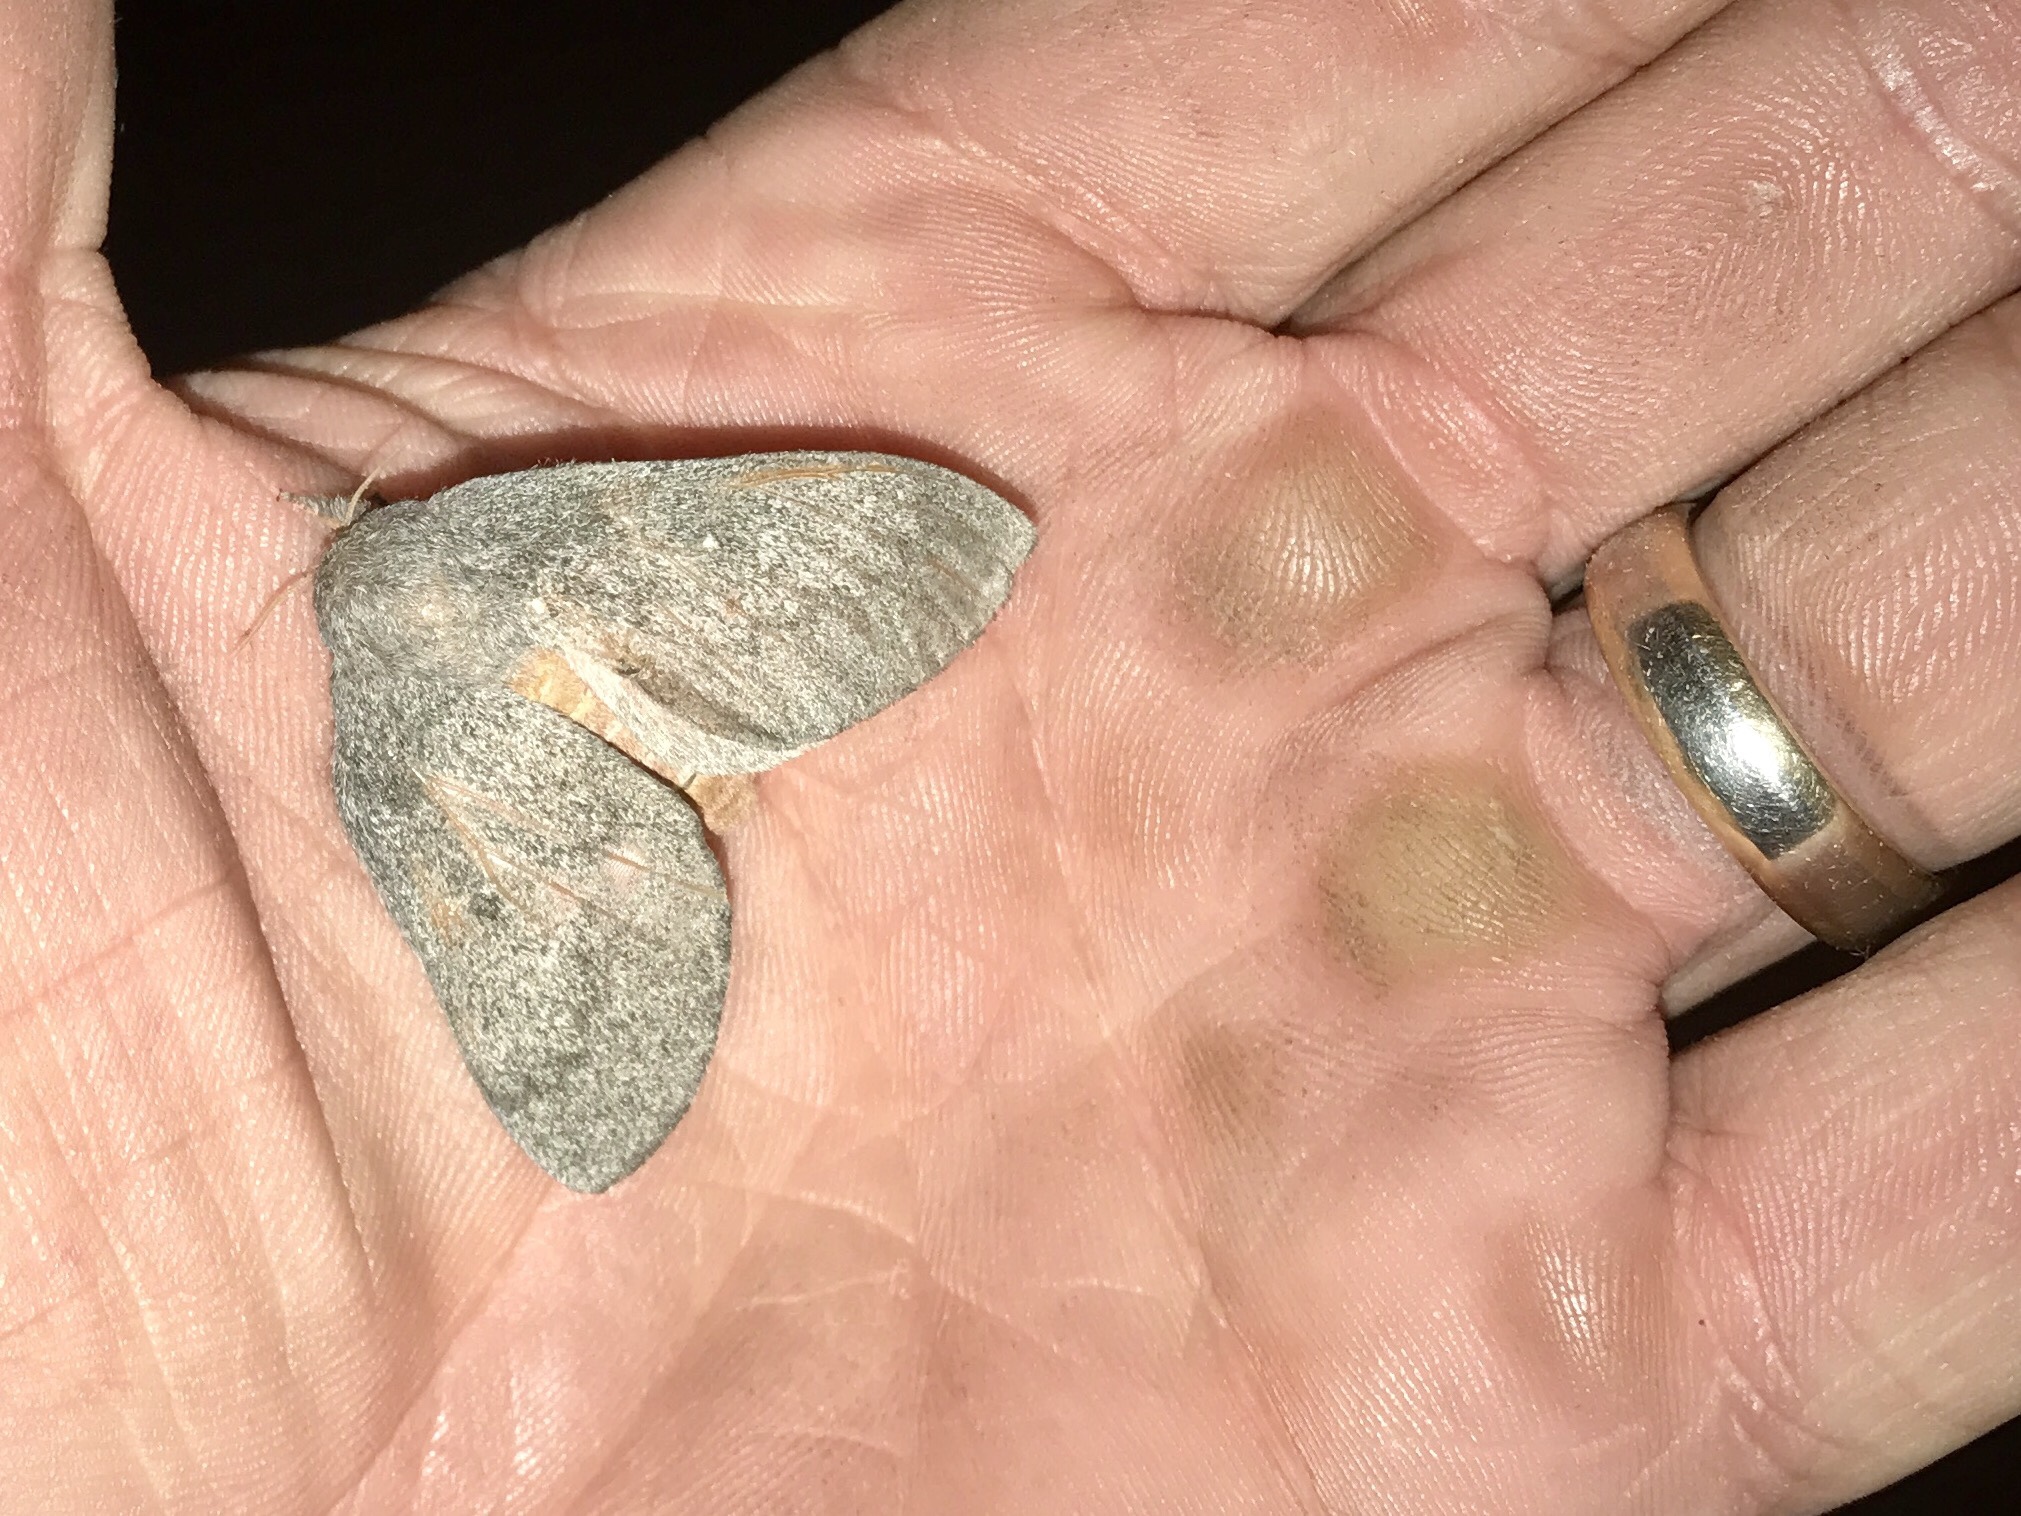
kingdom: Animalia
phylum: Arthropoda
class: Insecta
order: Lepidoptera
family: Saturniidae
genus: Syssphinx
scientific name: Syssphinx hubbardi
